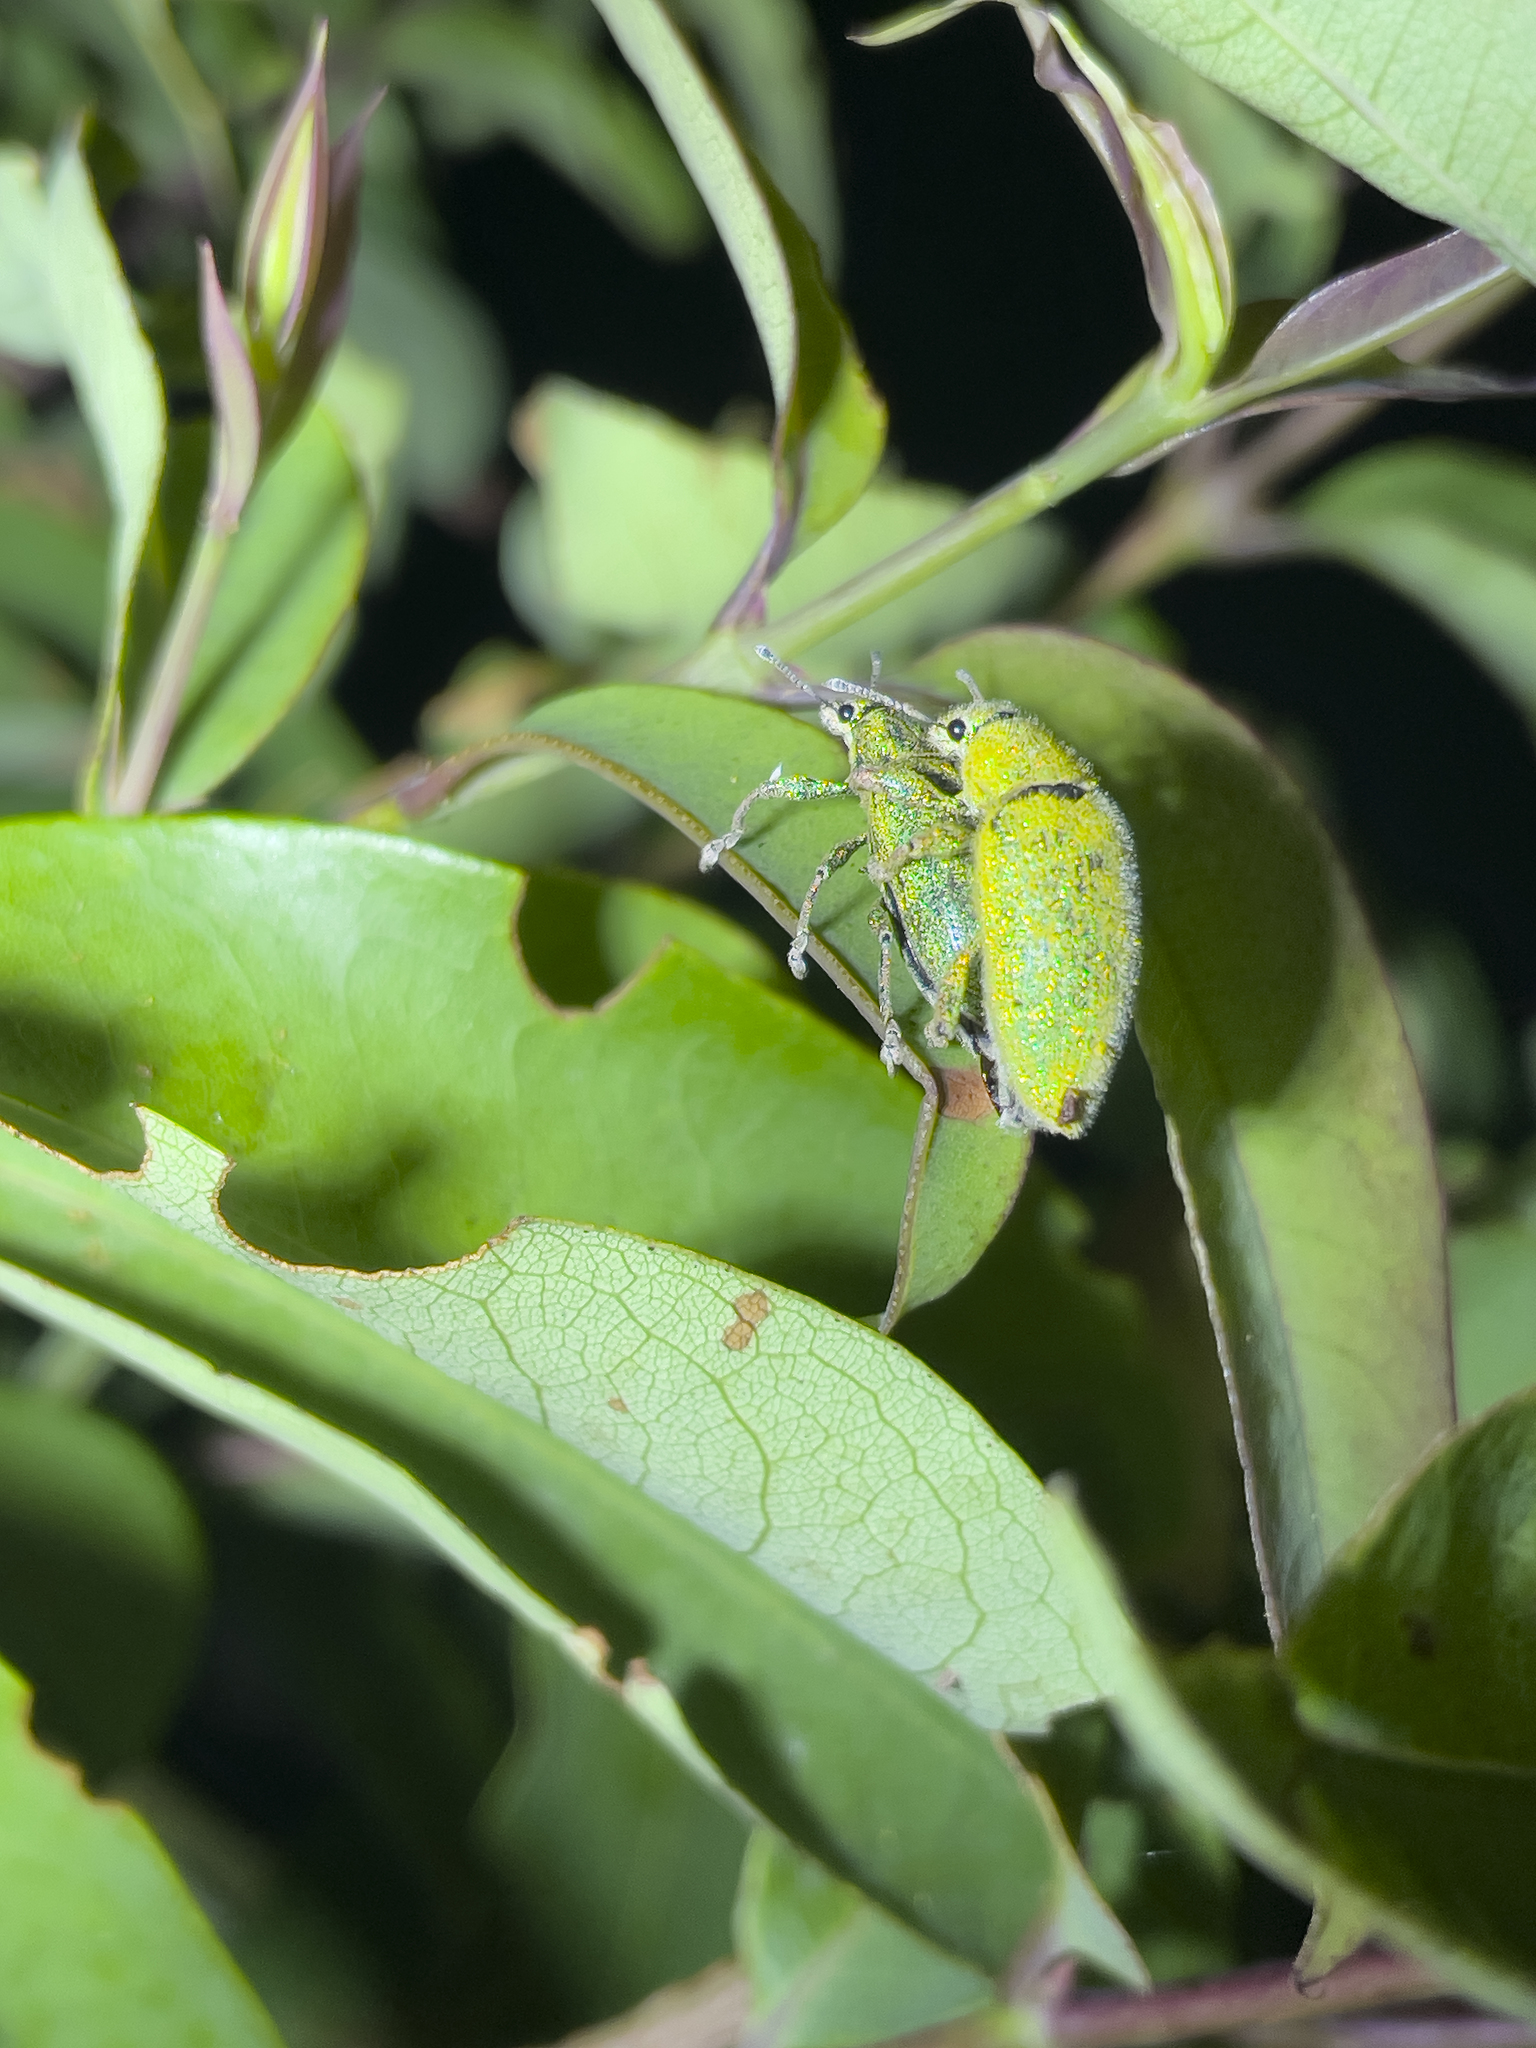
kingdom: Animalia
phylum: Arthropoda
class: Insecta
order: Coleoptera
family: Curculionidae
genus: Hypomeces
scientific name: Hypomeces pulviger
